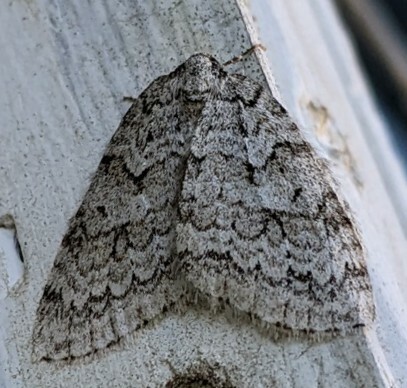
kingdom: Animalia
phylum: Arthropoda
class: Insecta
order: Lepidoptera
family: Geometridae
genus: Epirrita
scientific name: Epirrita autumnata
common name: Autumnal moth
